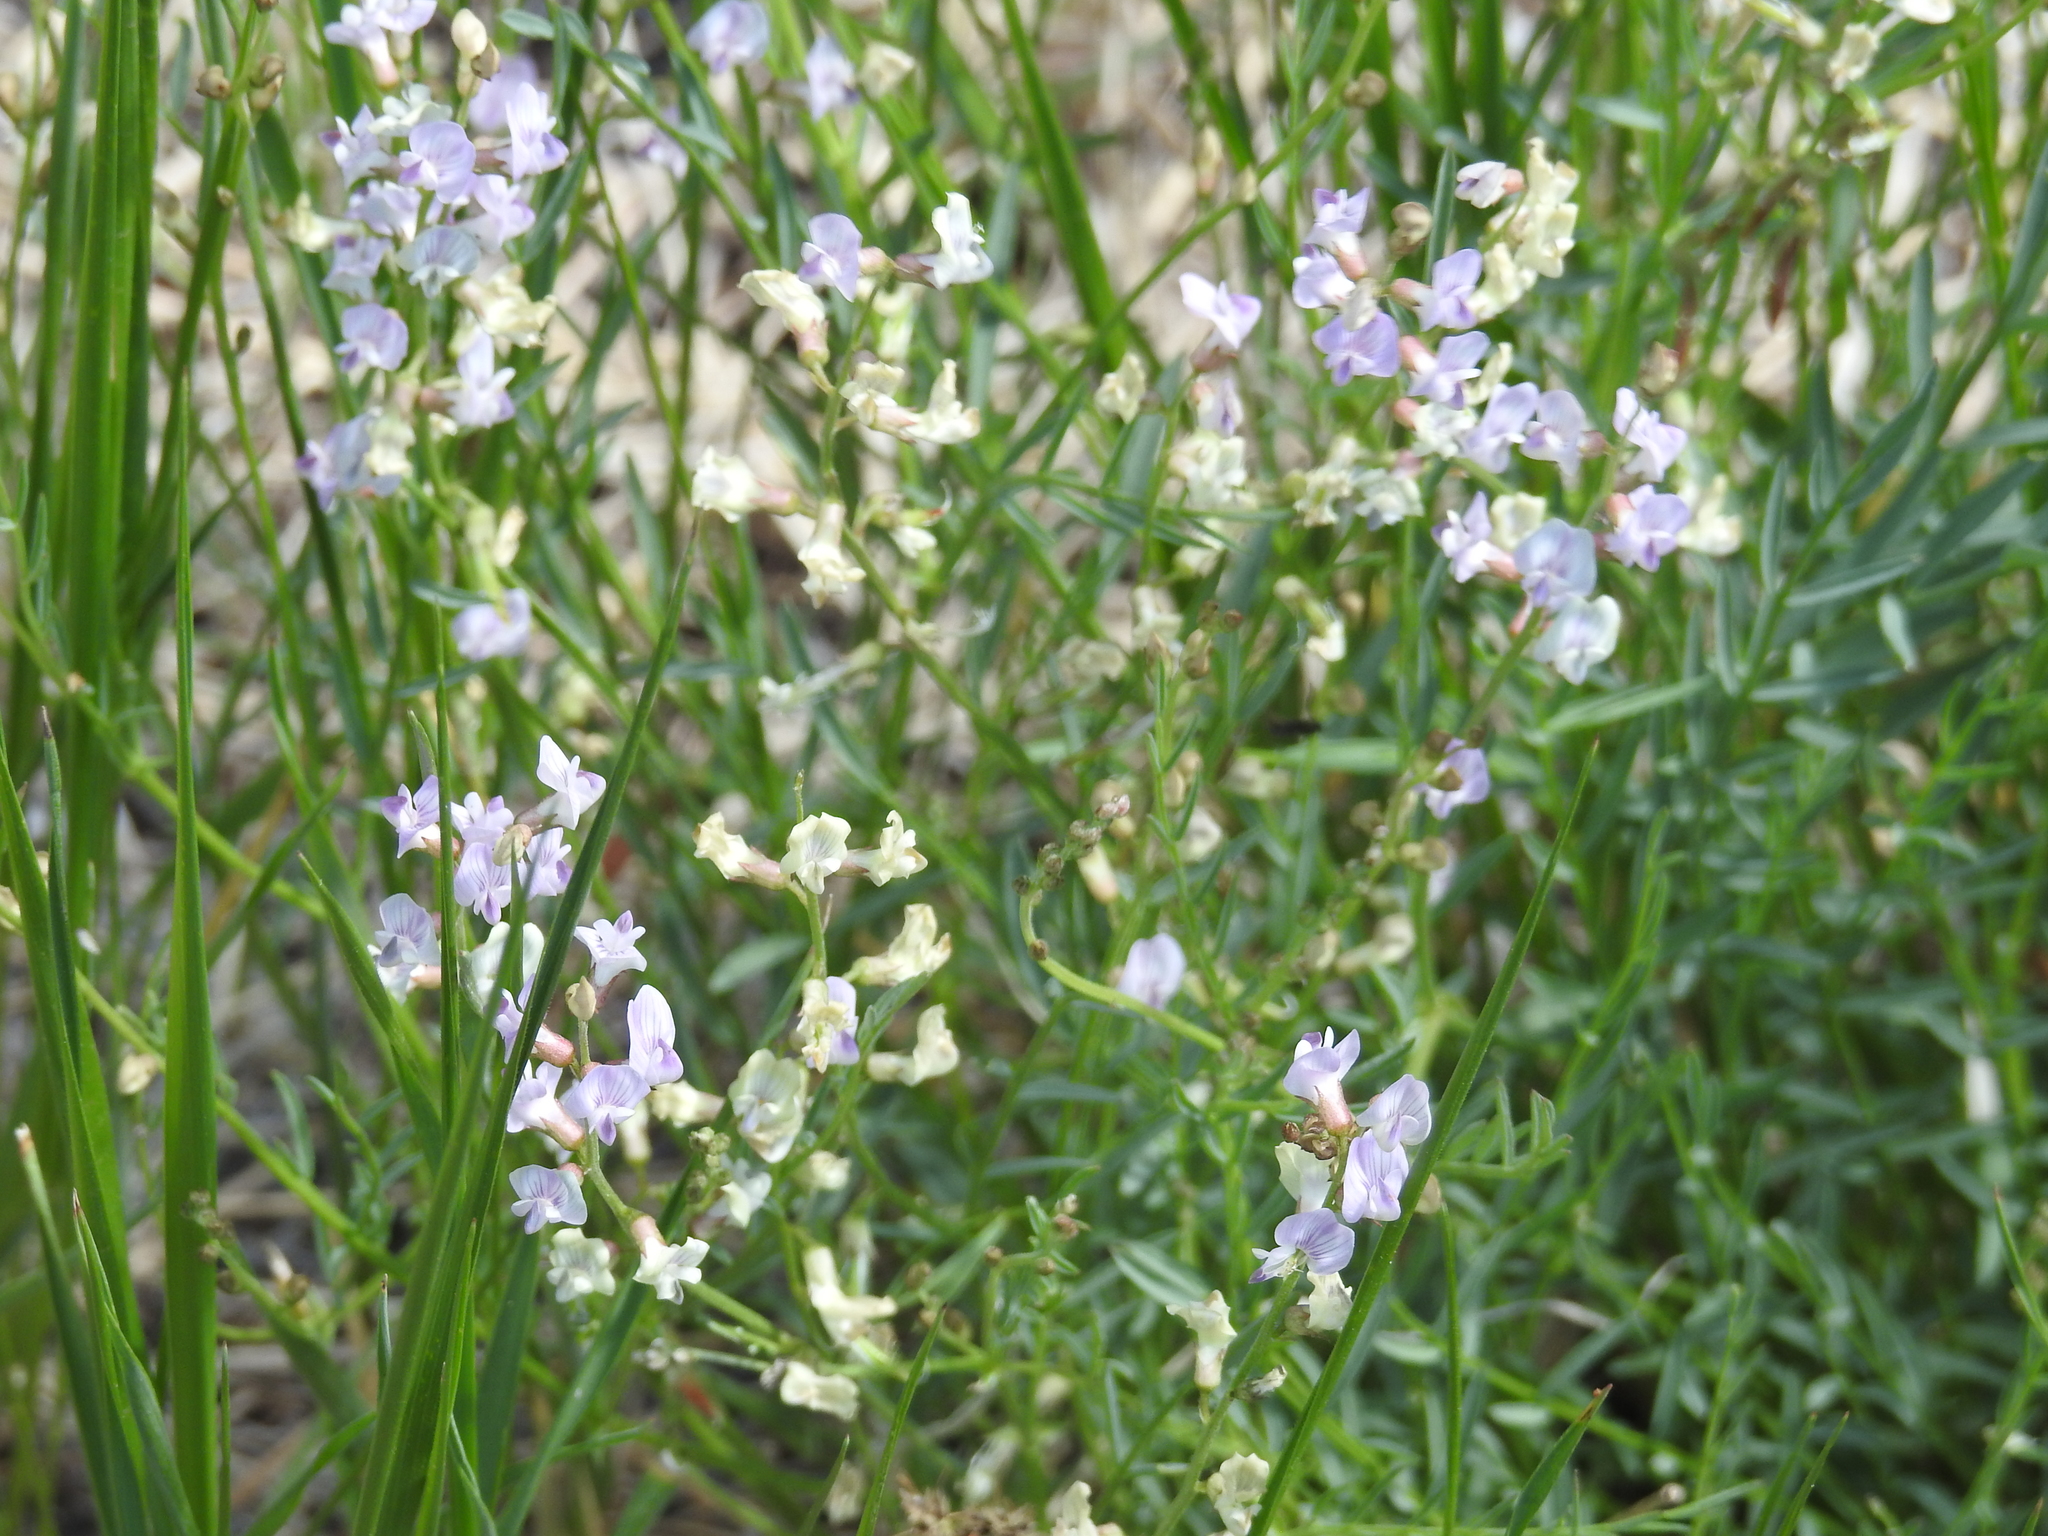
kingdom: Plantae
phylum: Tracheophyta
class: Magnoliopsida
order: Fabales
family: Fabaceae
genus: Astragalus
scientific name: Astragalus miser
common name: Timber milkvetch
